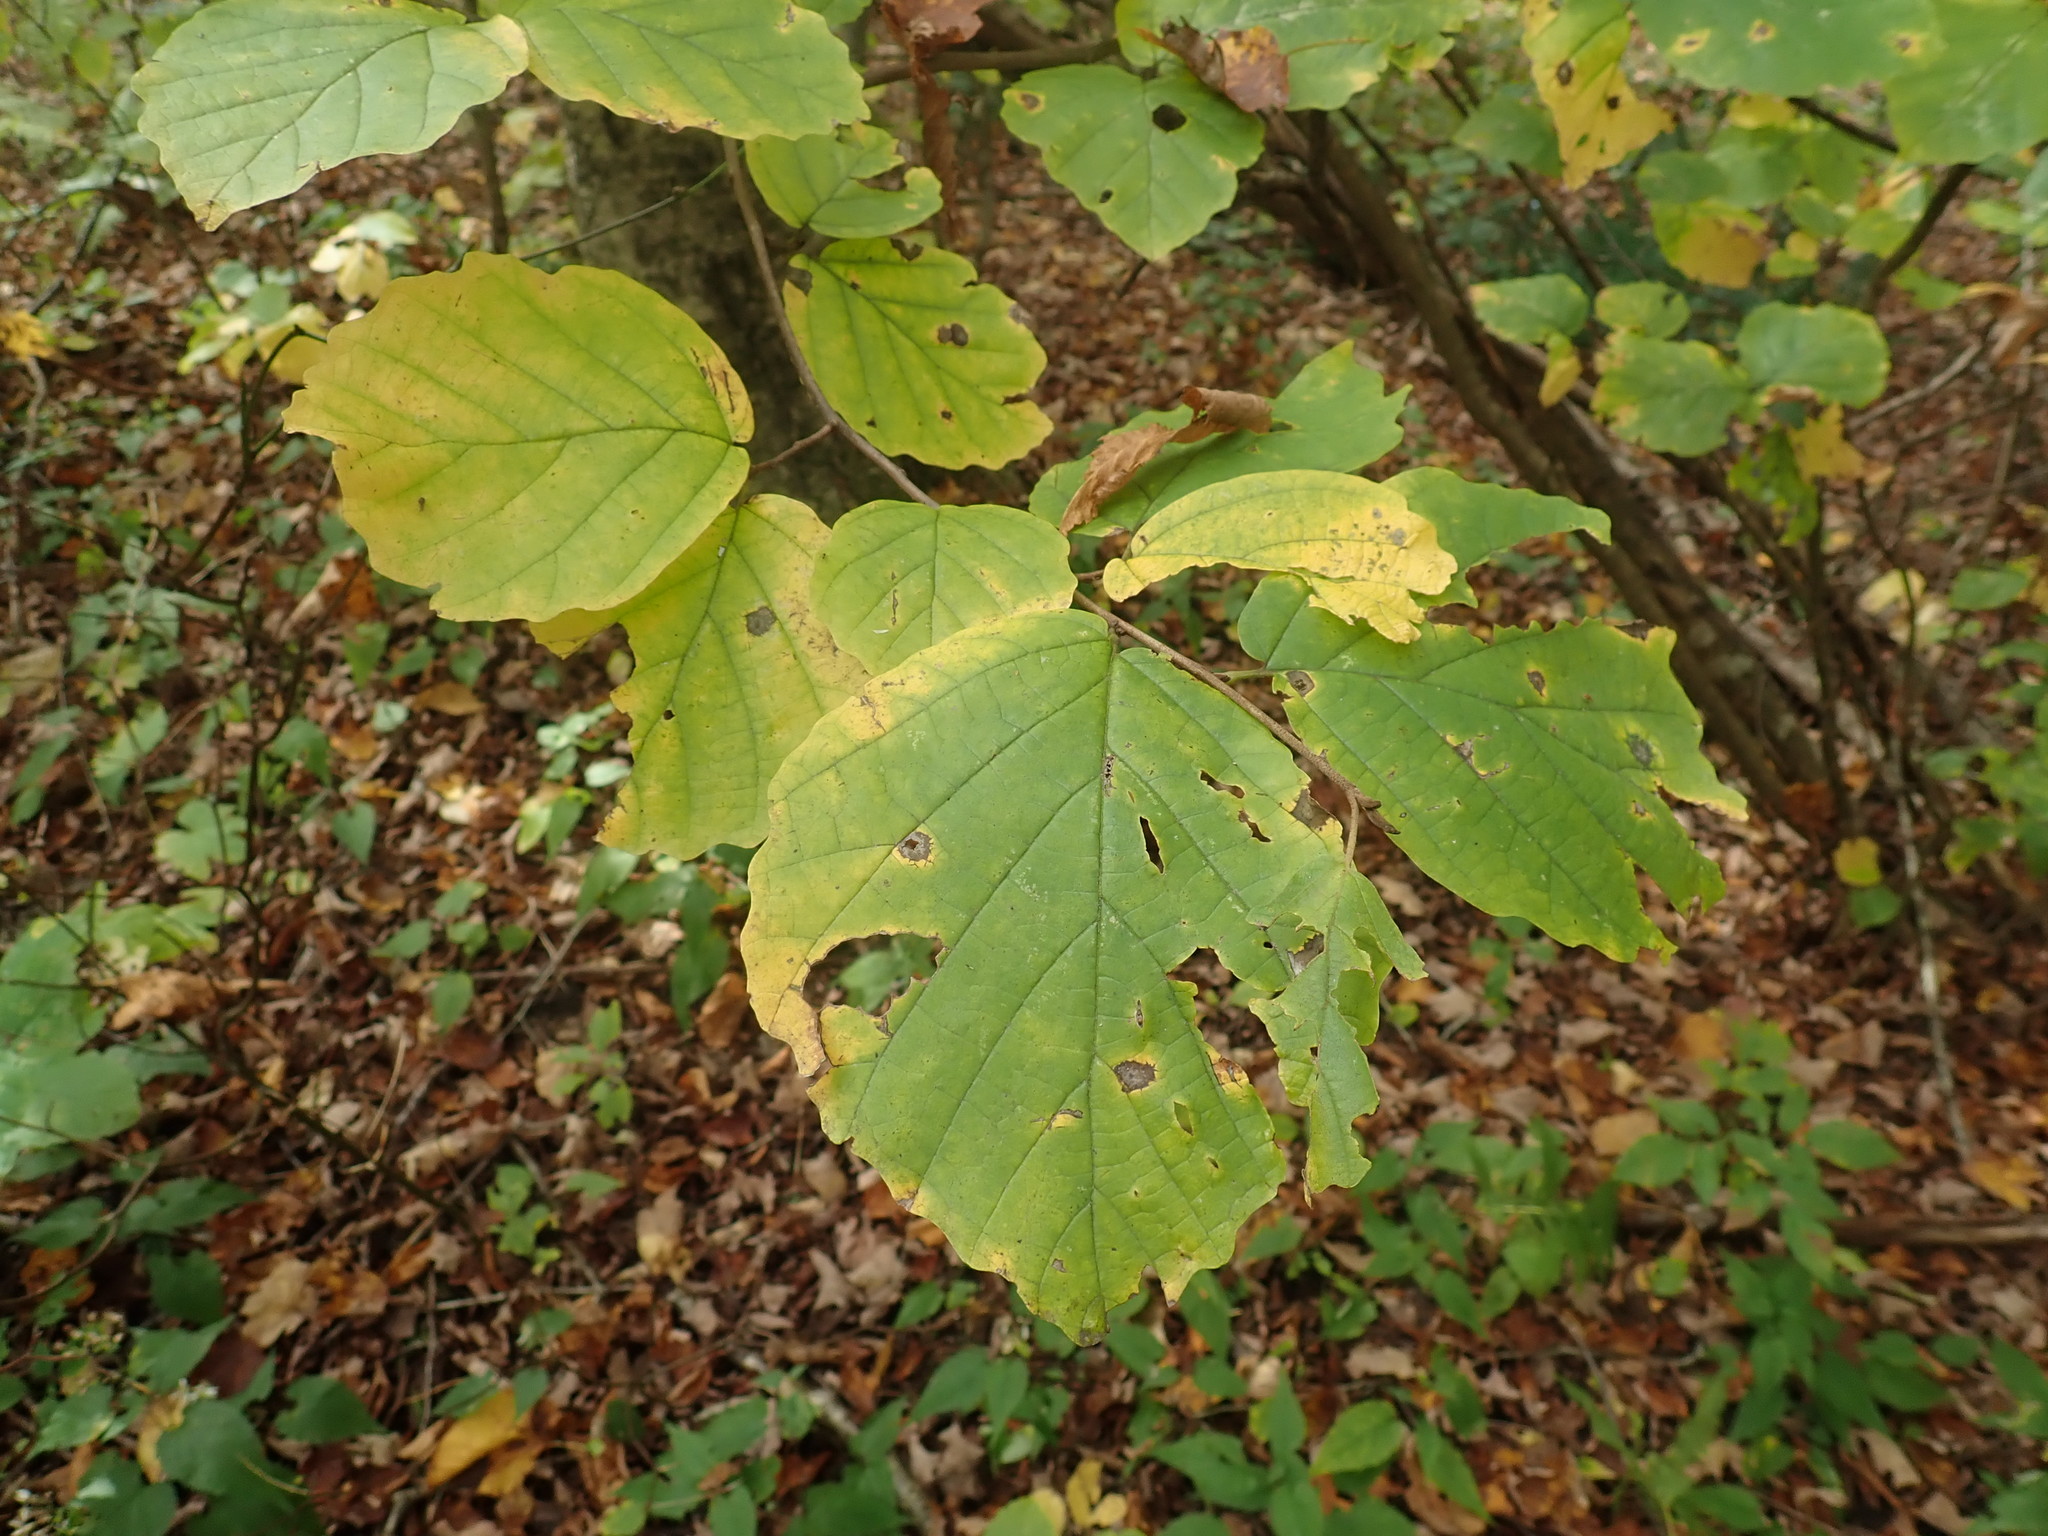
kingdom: Plantae
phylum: Tracheophyta
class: Magnoliopsida
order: Saxifragales
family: Hamamelidaceae
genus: Hamamelis
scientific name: Hamamelis virginiana
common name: Witch-hazel
